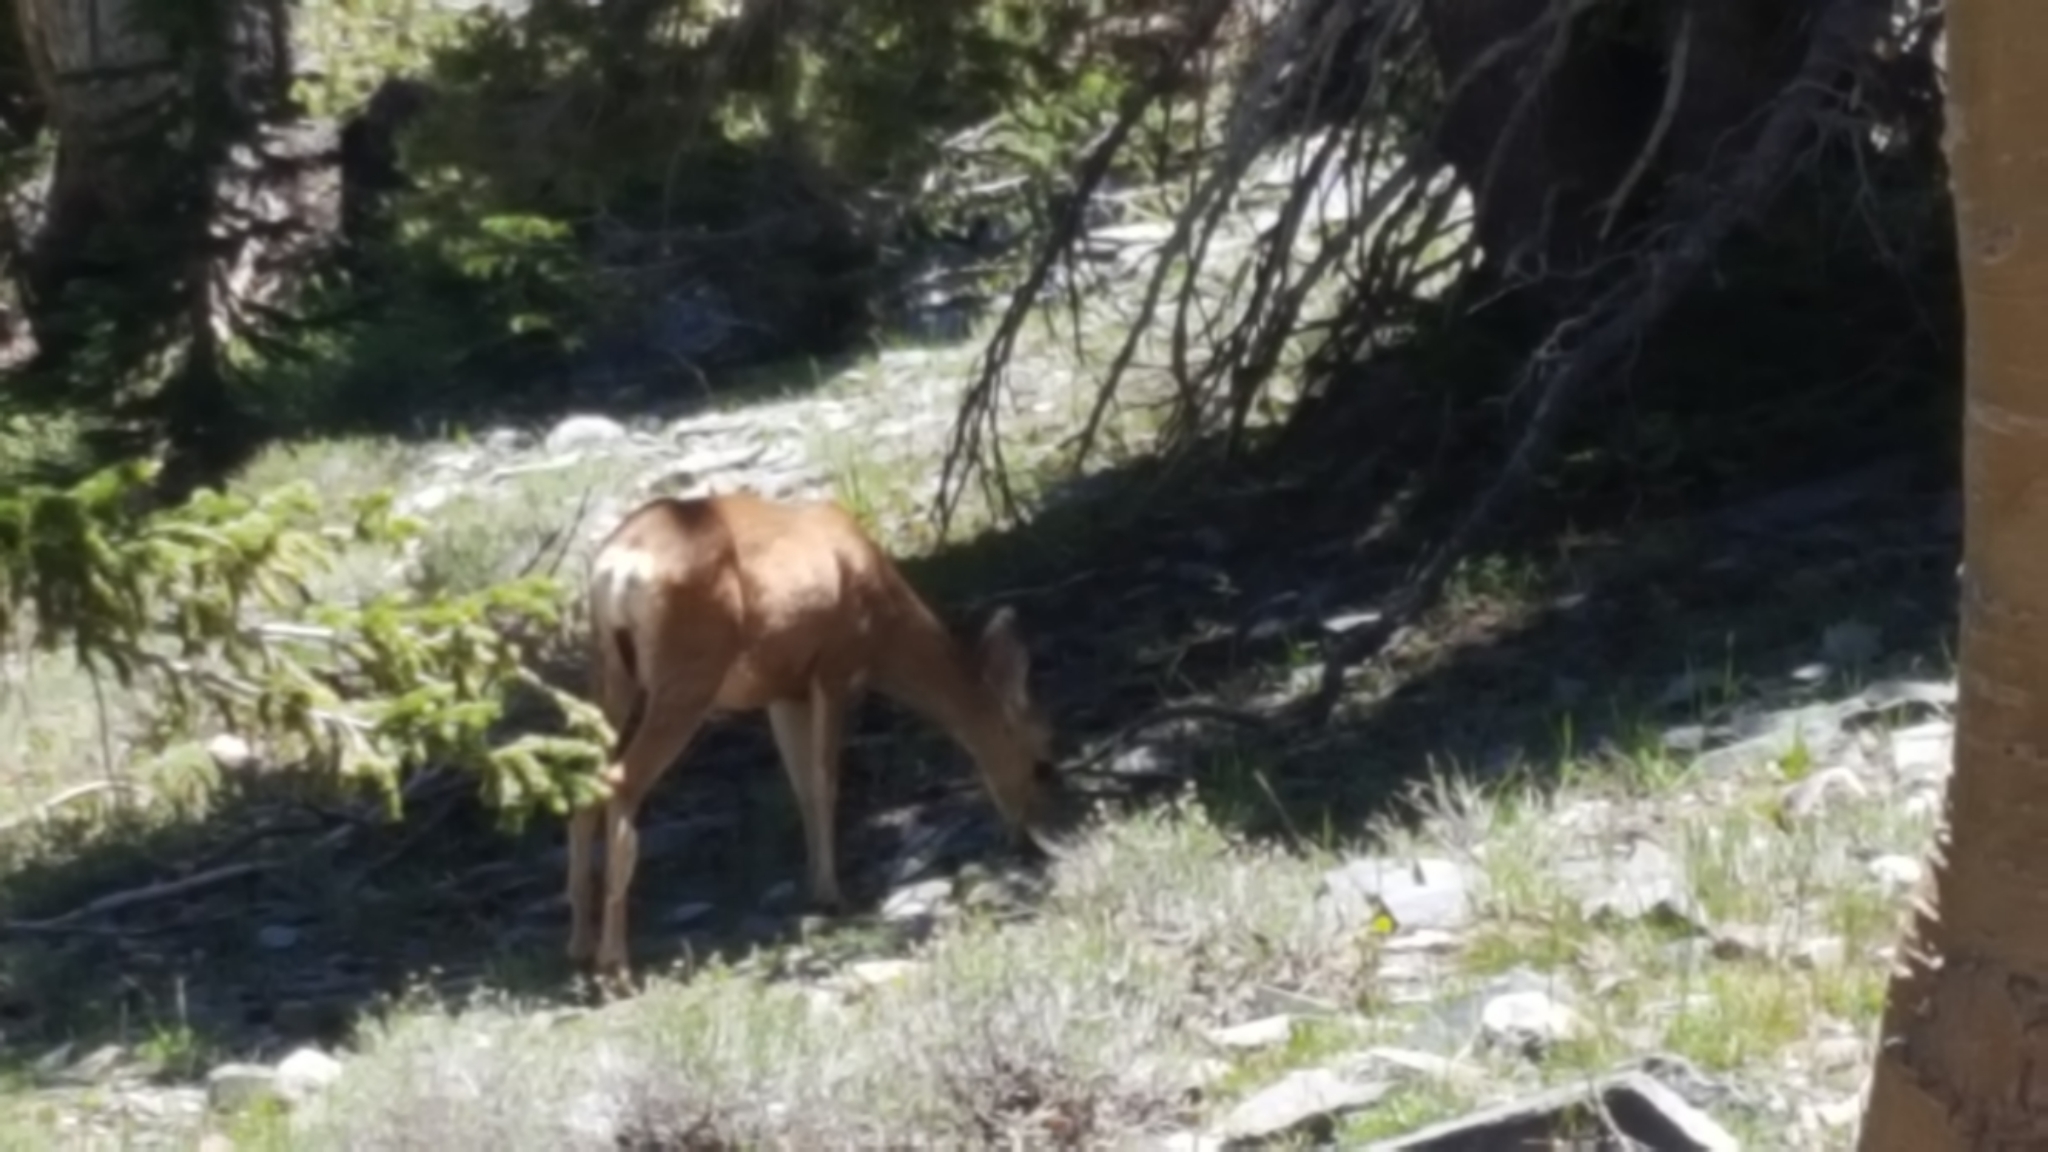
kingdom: Animalia
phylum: Chordata
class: Mammalia
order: Artiodactyla
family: Cervidae
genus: Odocoileus
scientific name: Odocoileus hemionus
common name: Mule deer
